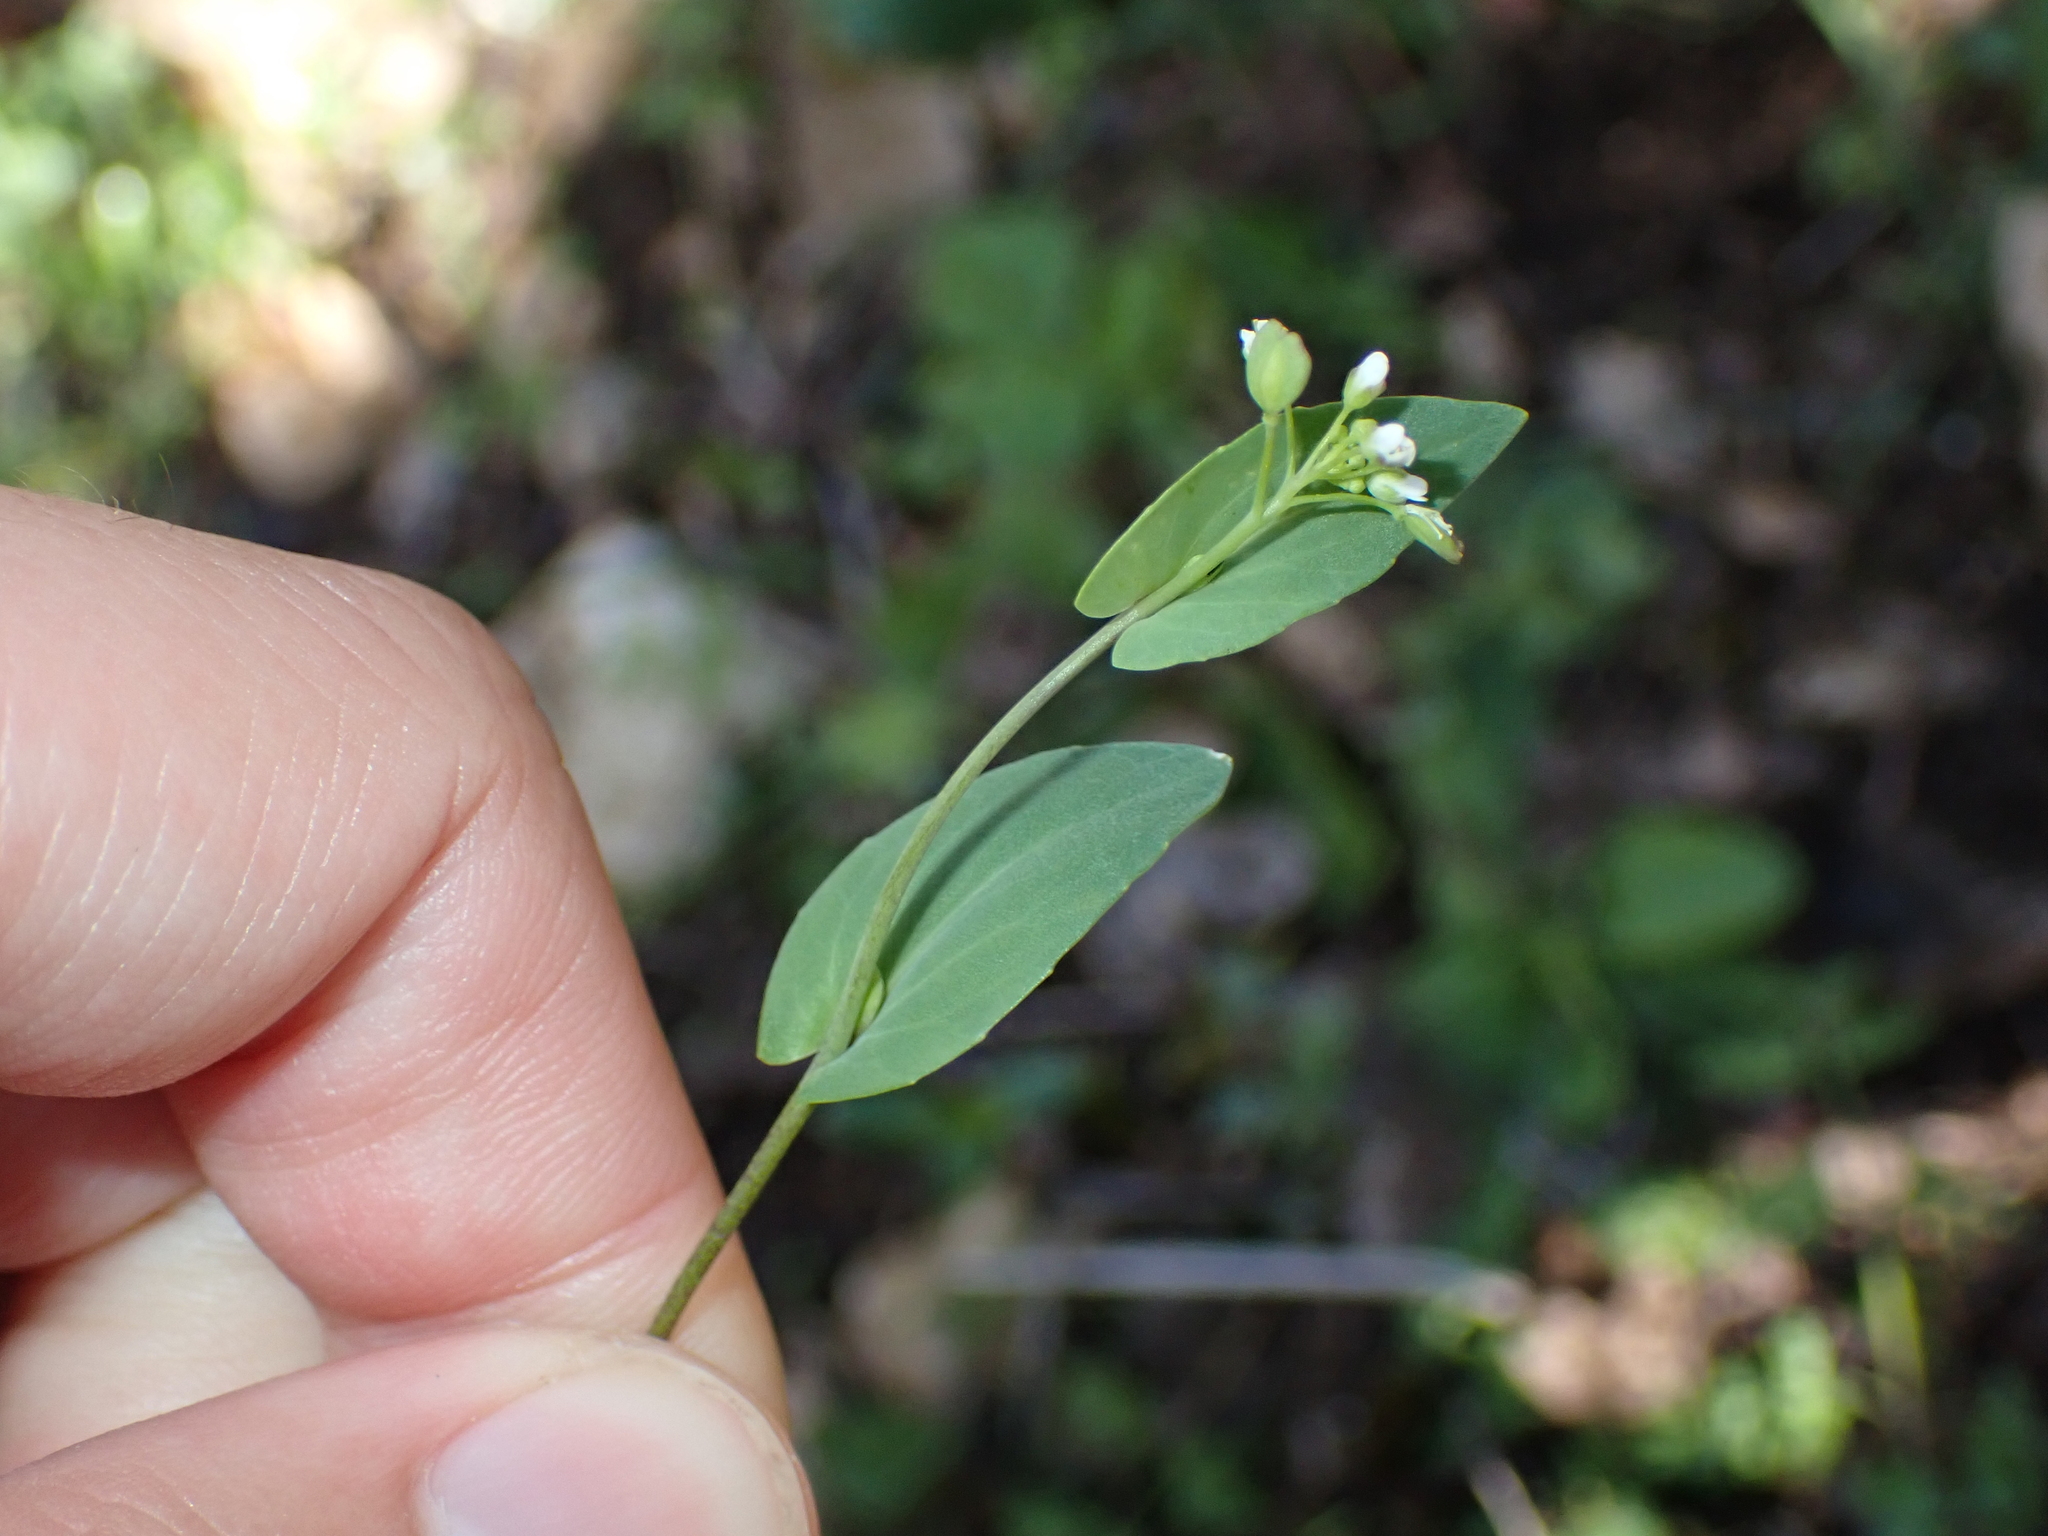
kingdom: Plantae
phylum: Tracheophyta
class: Magnoliopsida
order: Brassicales
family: Brassicaceae
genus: Noccaea
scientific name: Noccaea perfoliata
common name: Perfoliate pennycress
